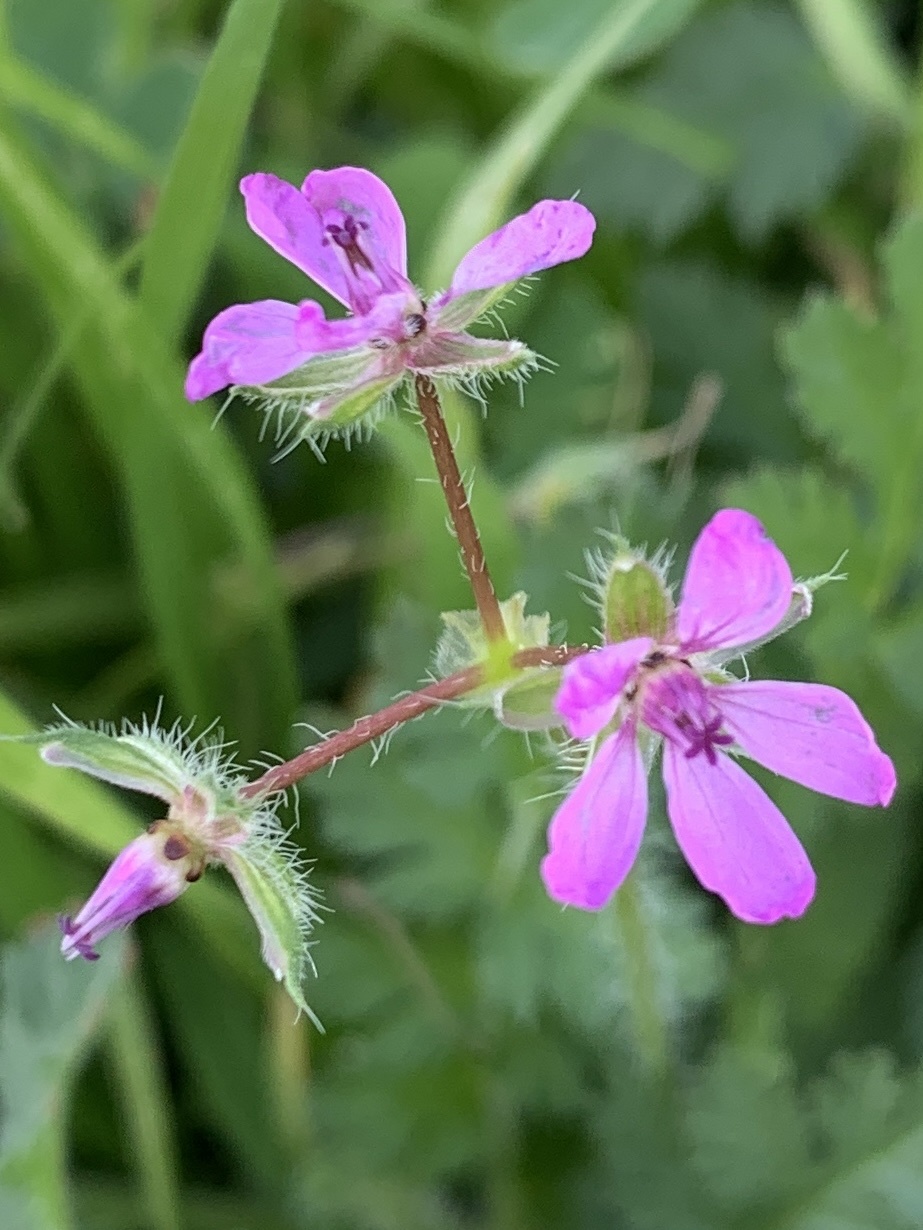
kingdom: Plantae
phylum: Tracheophyta
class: Magnoliopsida
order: Geraniales
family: Geraniaceae
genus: Erodium
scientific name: Erodium cicutarium
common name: Common stork's-bill
